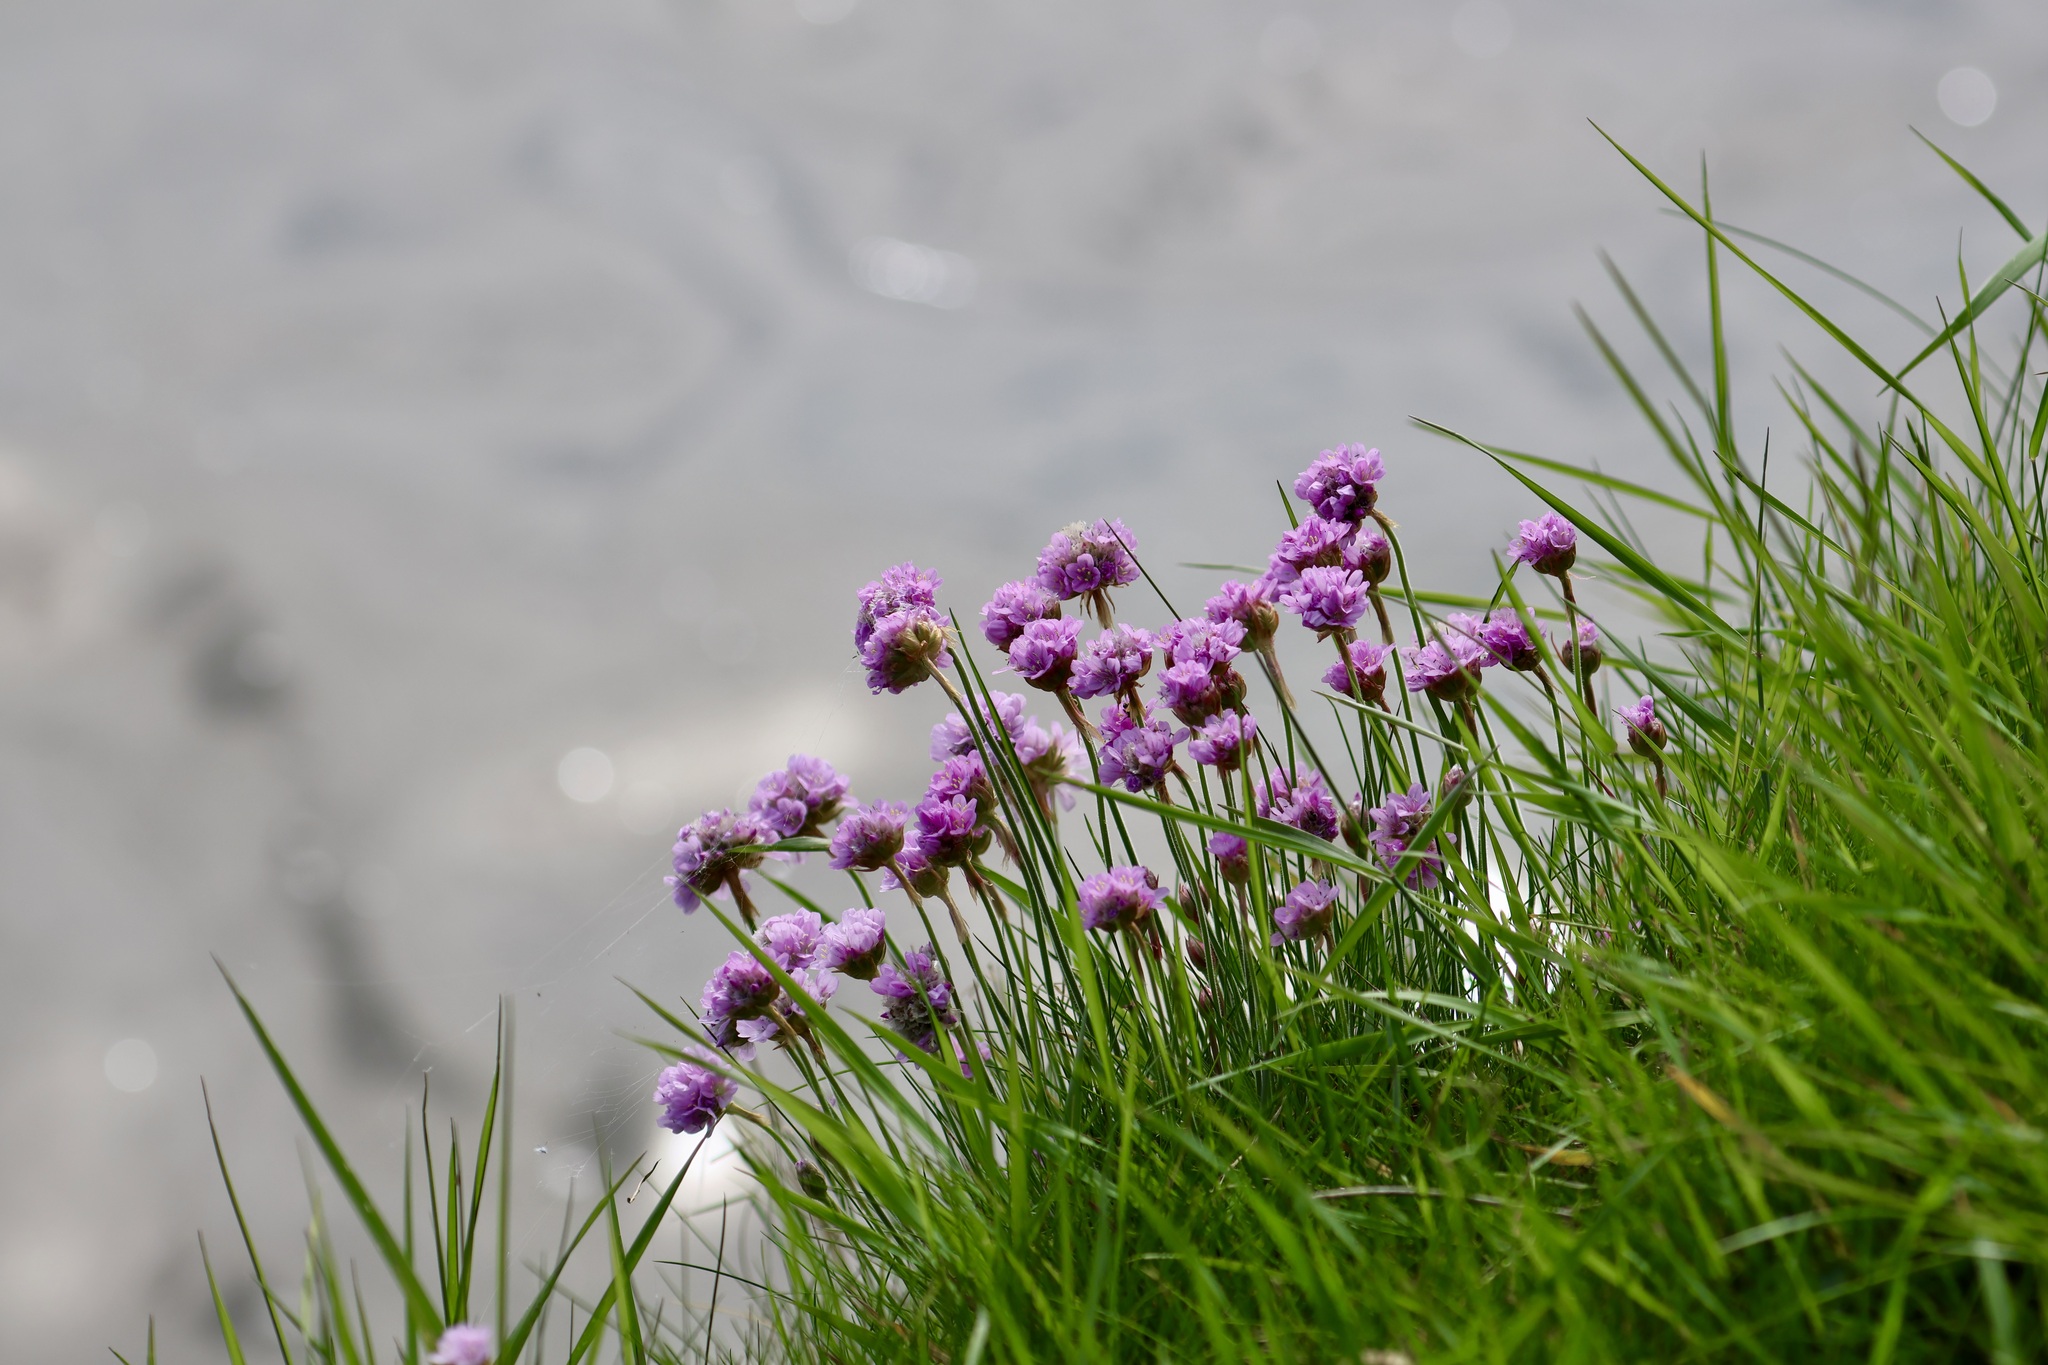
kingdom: Plantae
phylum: Tracheophyta
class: Magnoliopsida
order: Caryophyllales
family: Plumbaginaceae
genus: Armeria
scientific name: Armeria maritima
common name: Thrift
